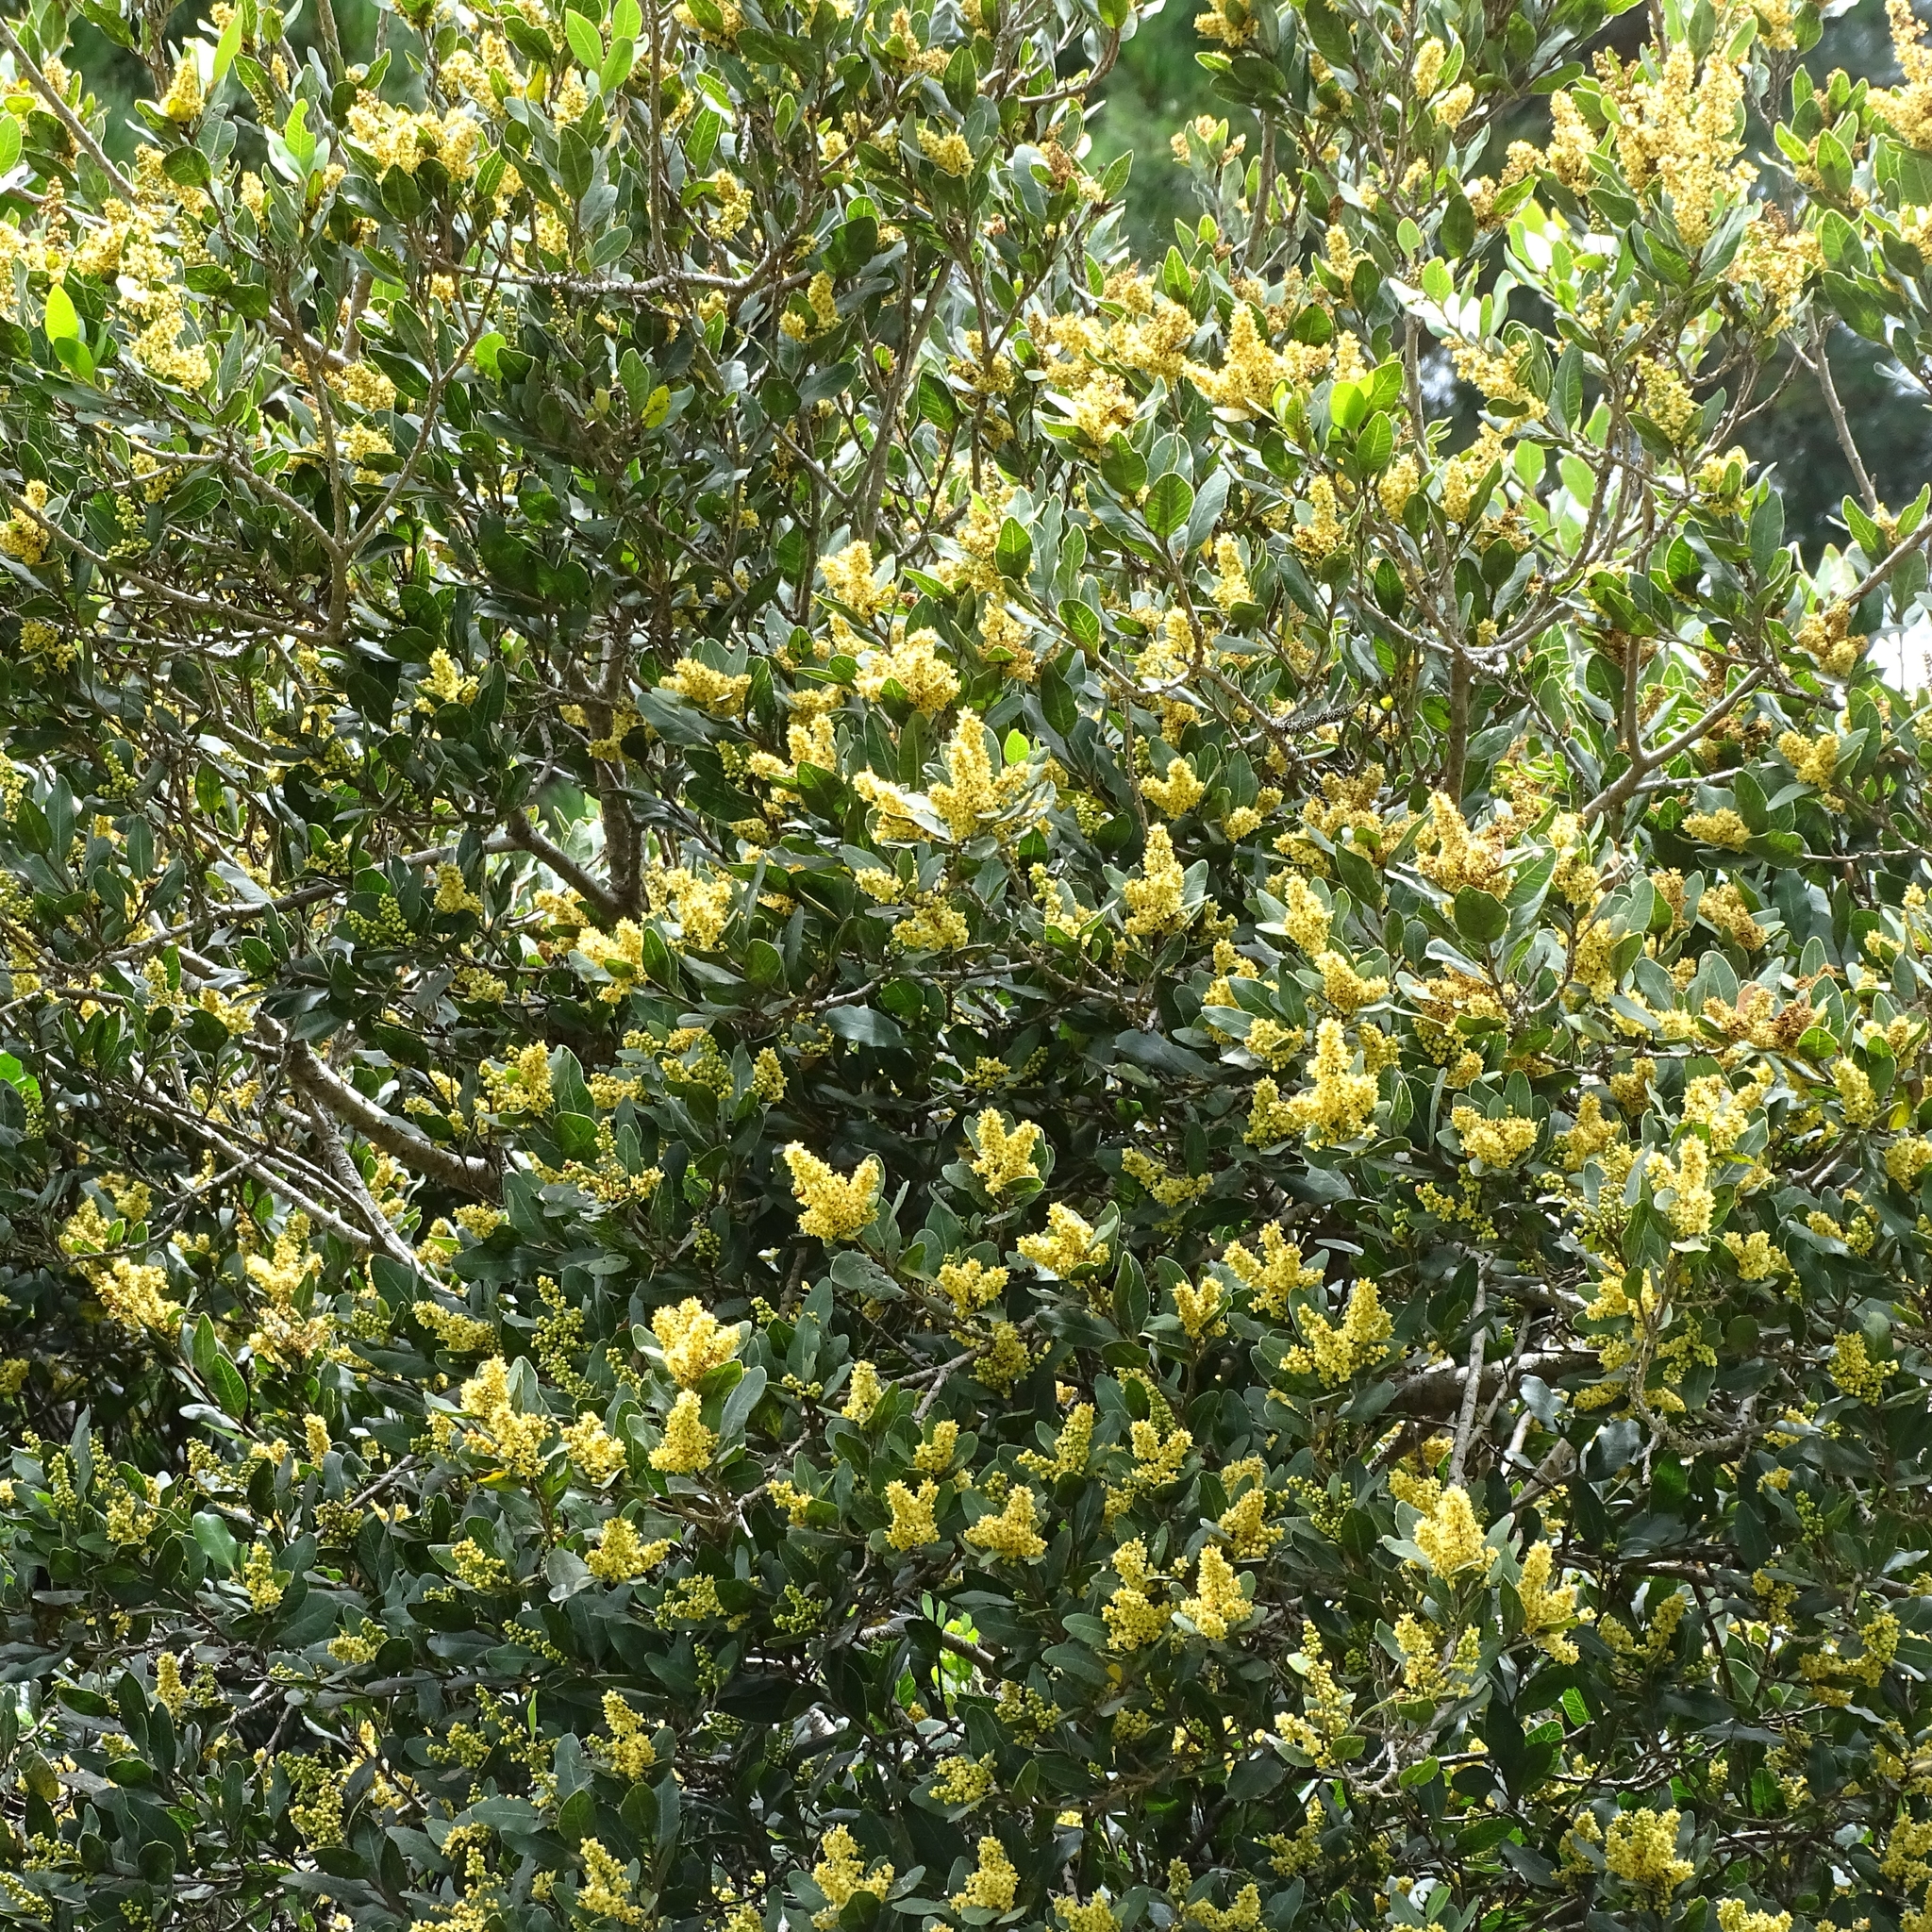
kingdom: Plantae
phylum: Tracheophyta
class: Magnoliopsida
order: Sapindales
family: Anacardiaceae
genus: Lithraea
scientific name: Lithraea caustica
